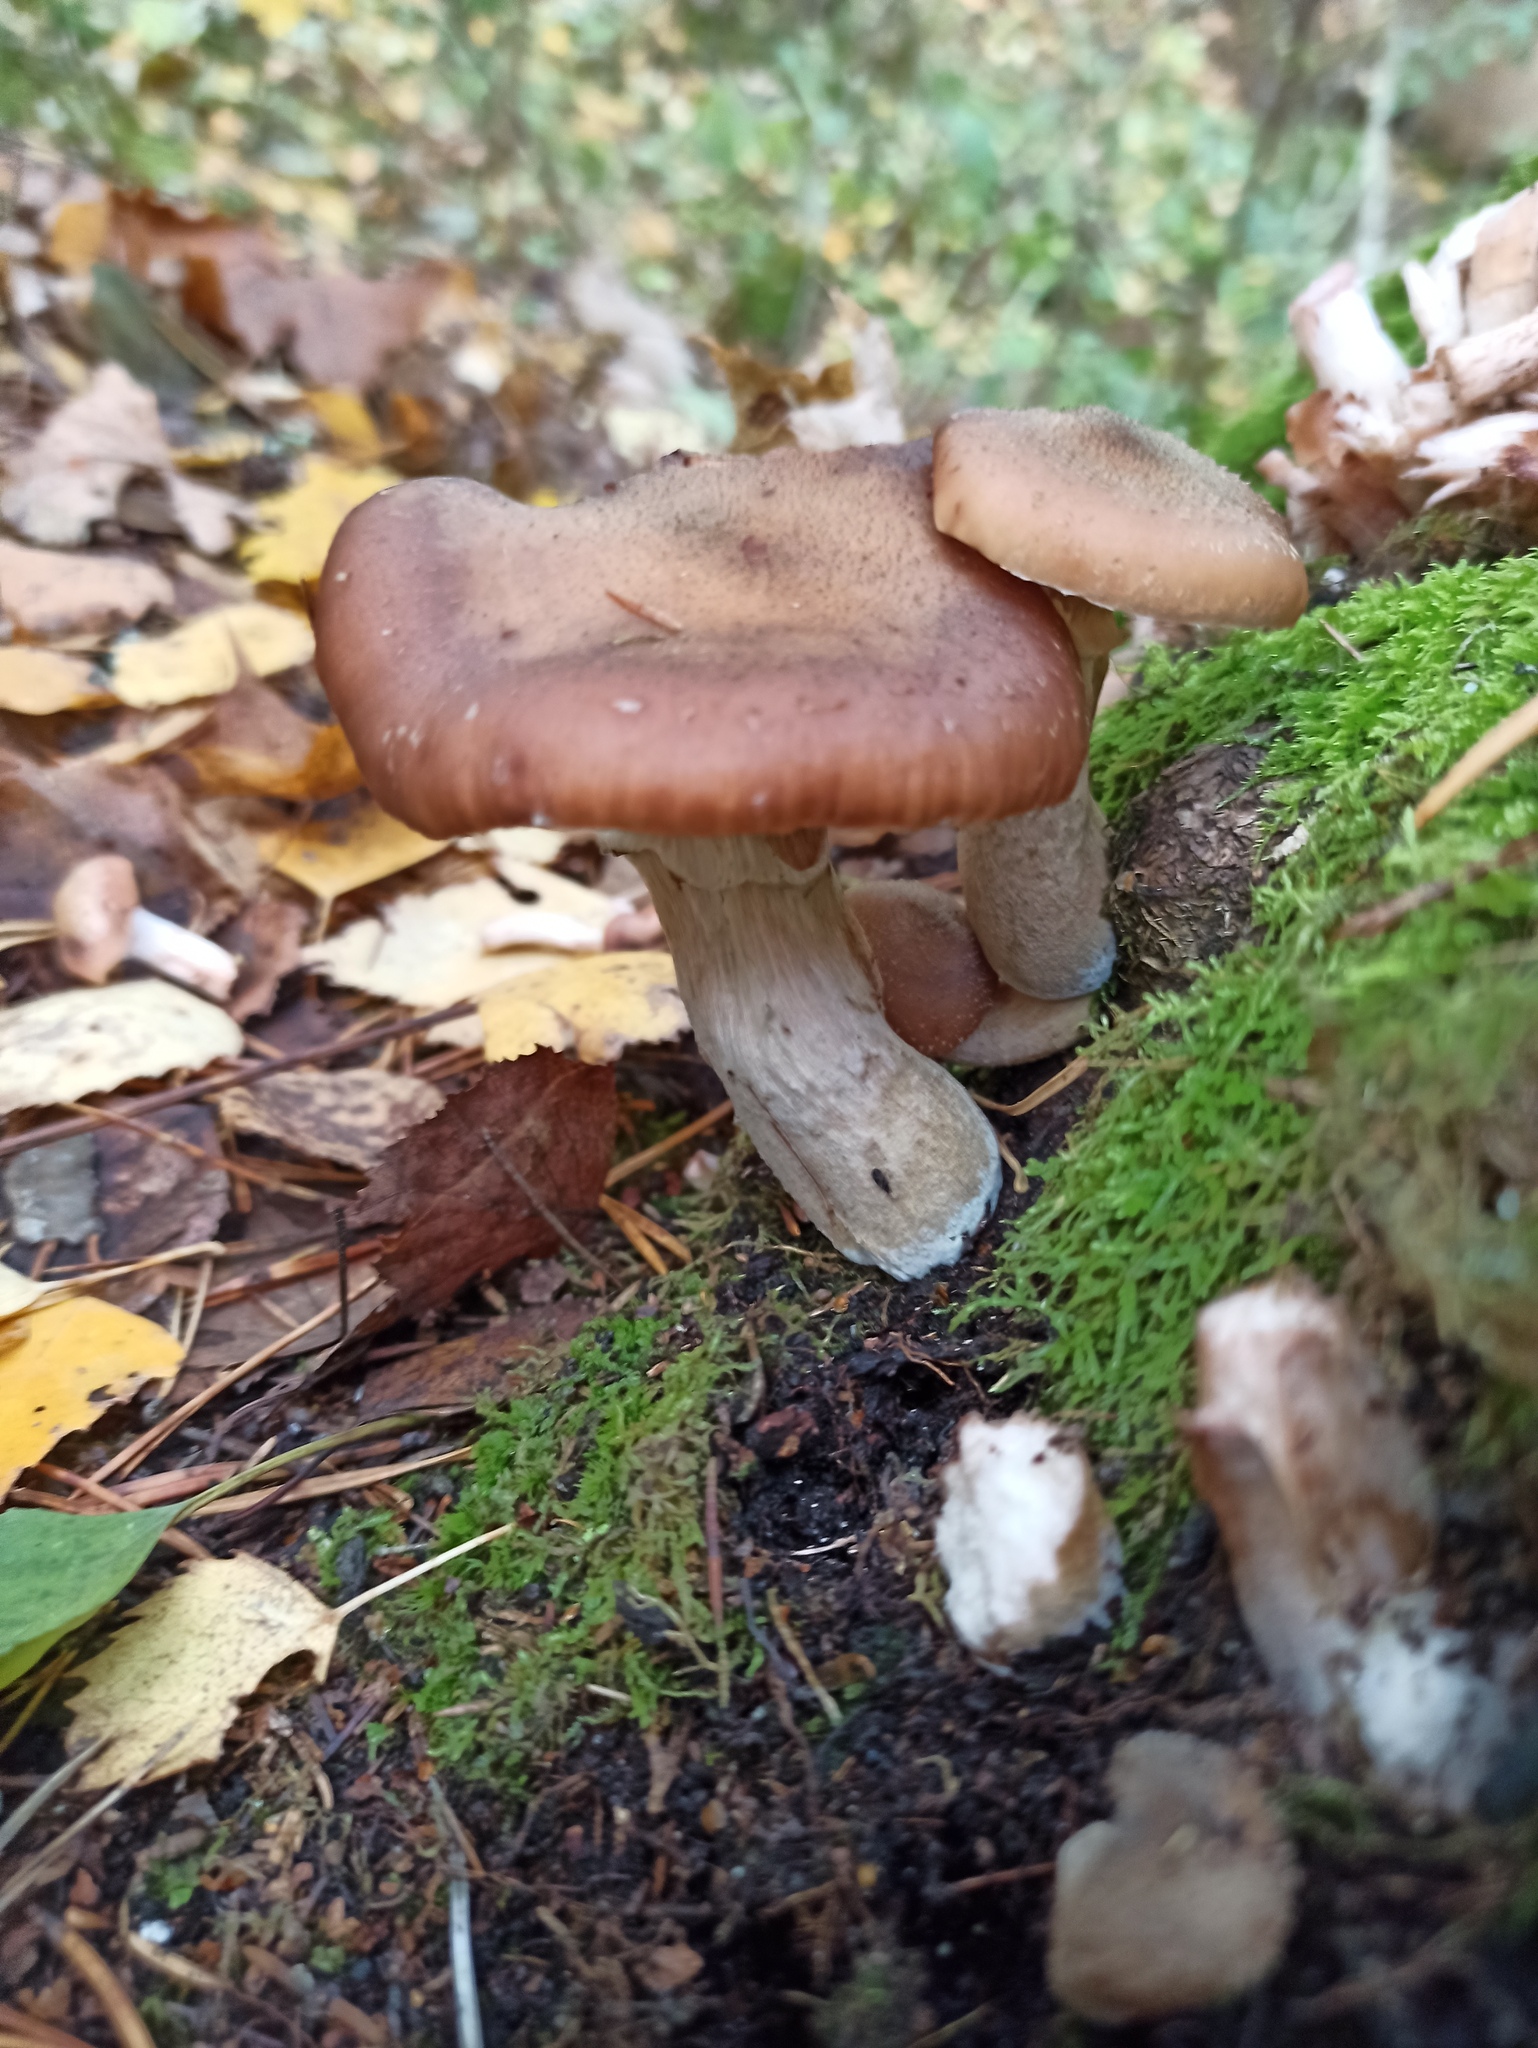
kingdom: Fungi
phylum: Basidiomycota
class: Agaricomycetes
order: Agaricales
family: Physalacriaceae
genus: Armillaria
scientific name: Armillaria ostoyae
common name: Dark honey fungus
